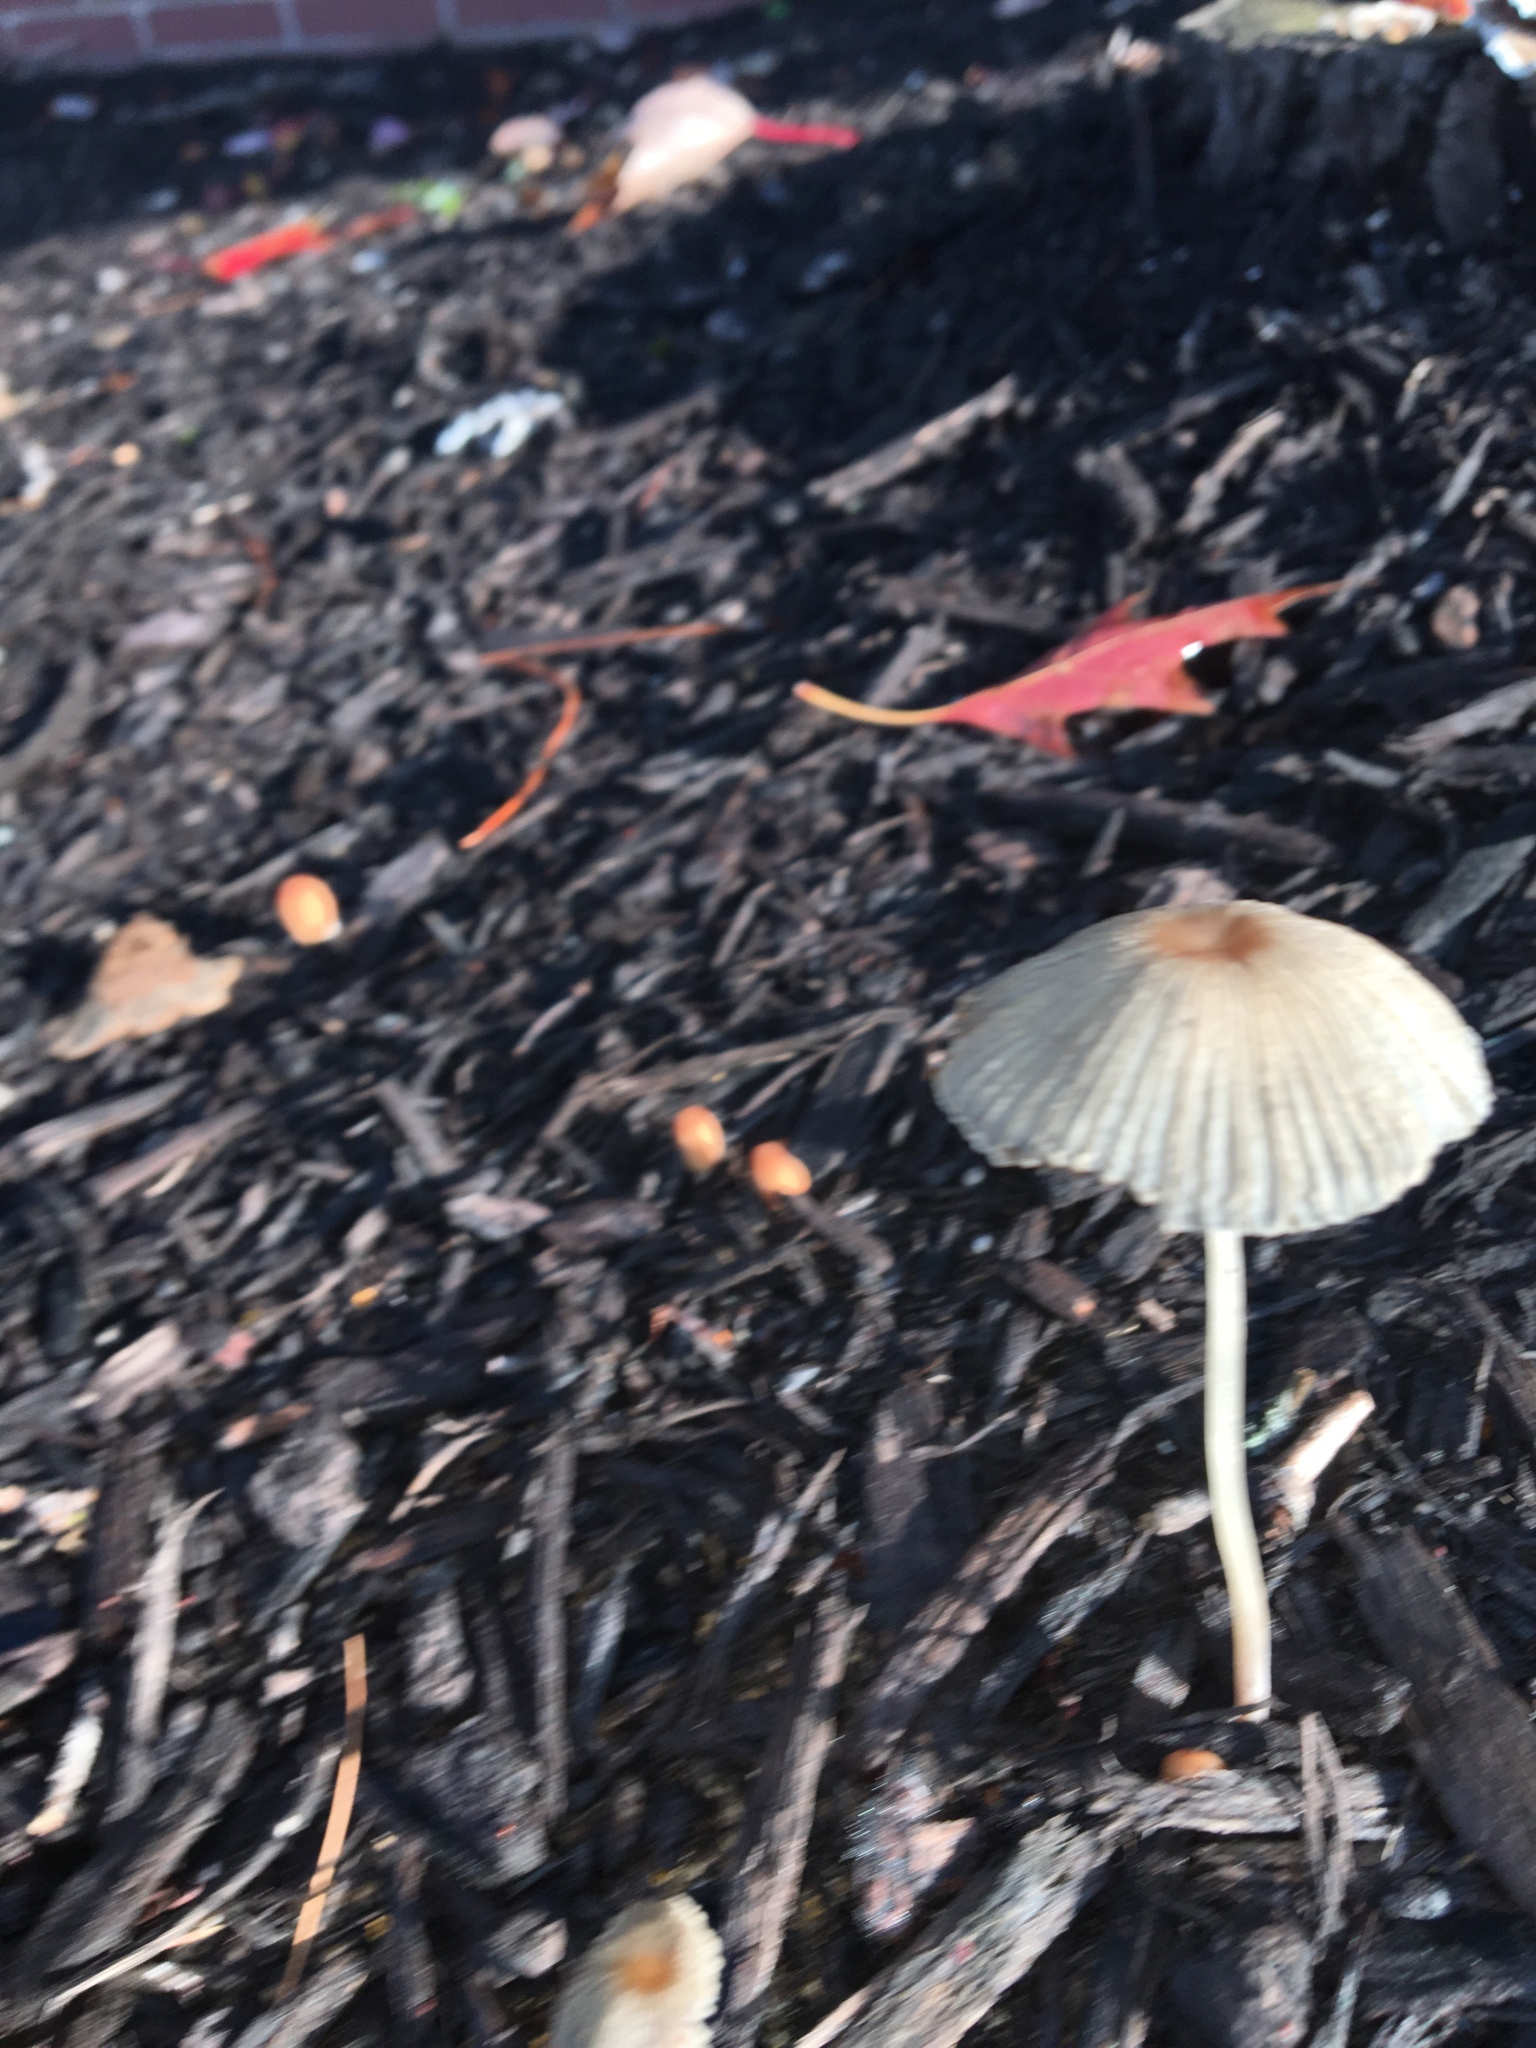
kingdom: Fungi
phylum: Basidiomycota
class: Agaricomycetes
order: Agaricales
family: Psathyrellaceae
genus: Parasola
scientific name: Parasola plicatilis
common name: Pleated inkcap
